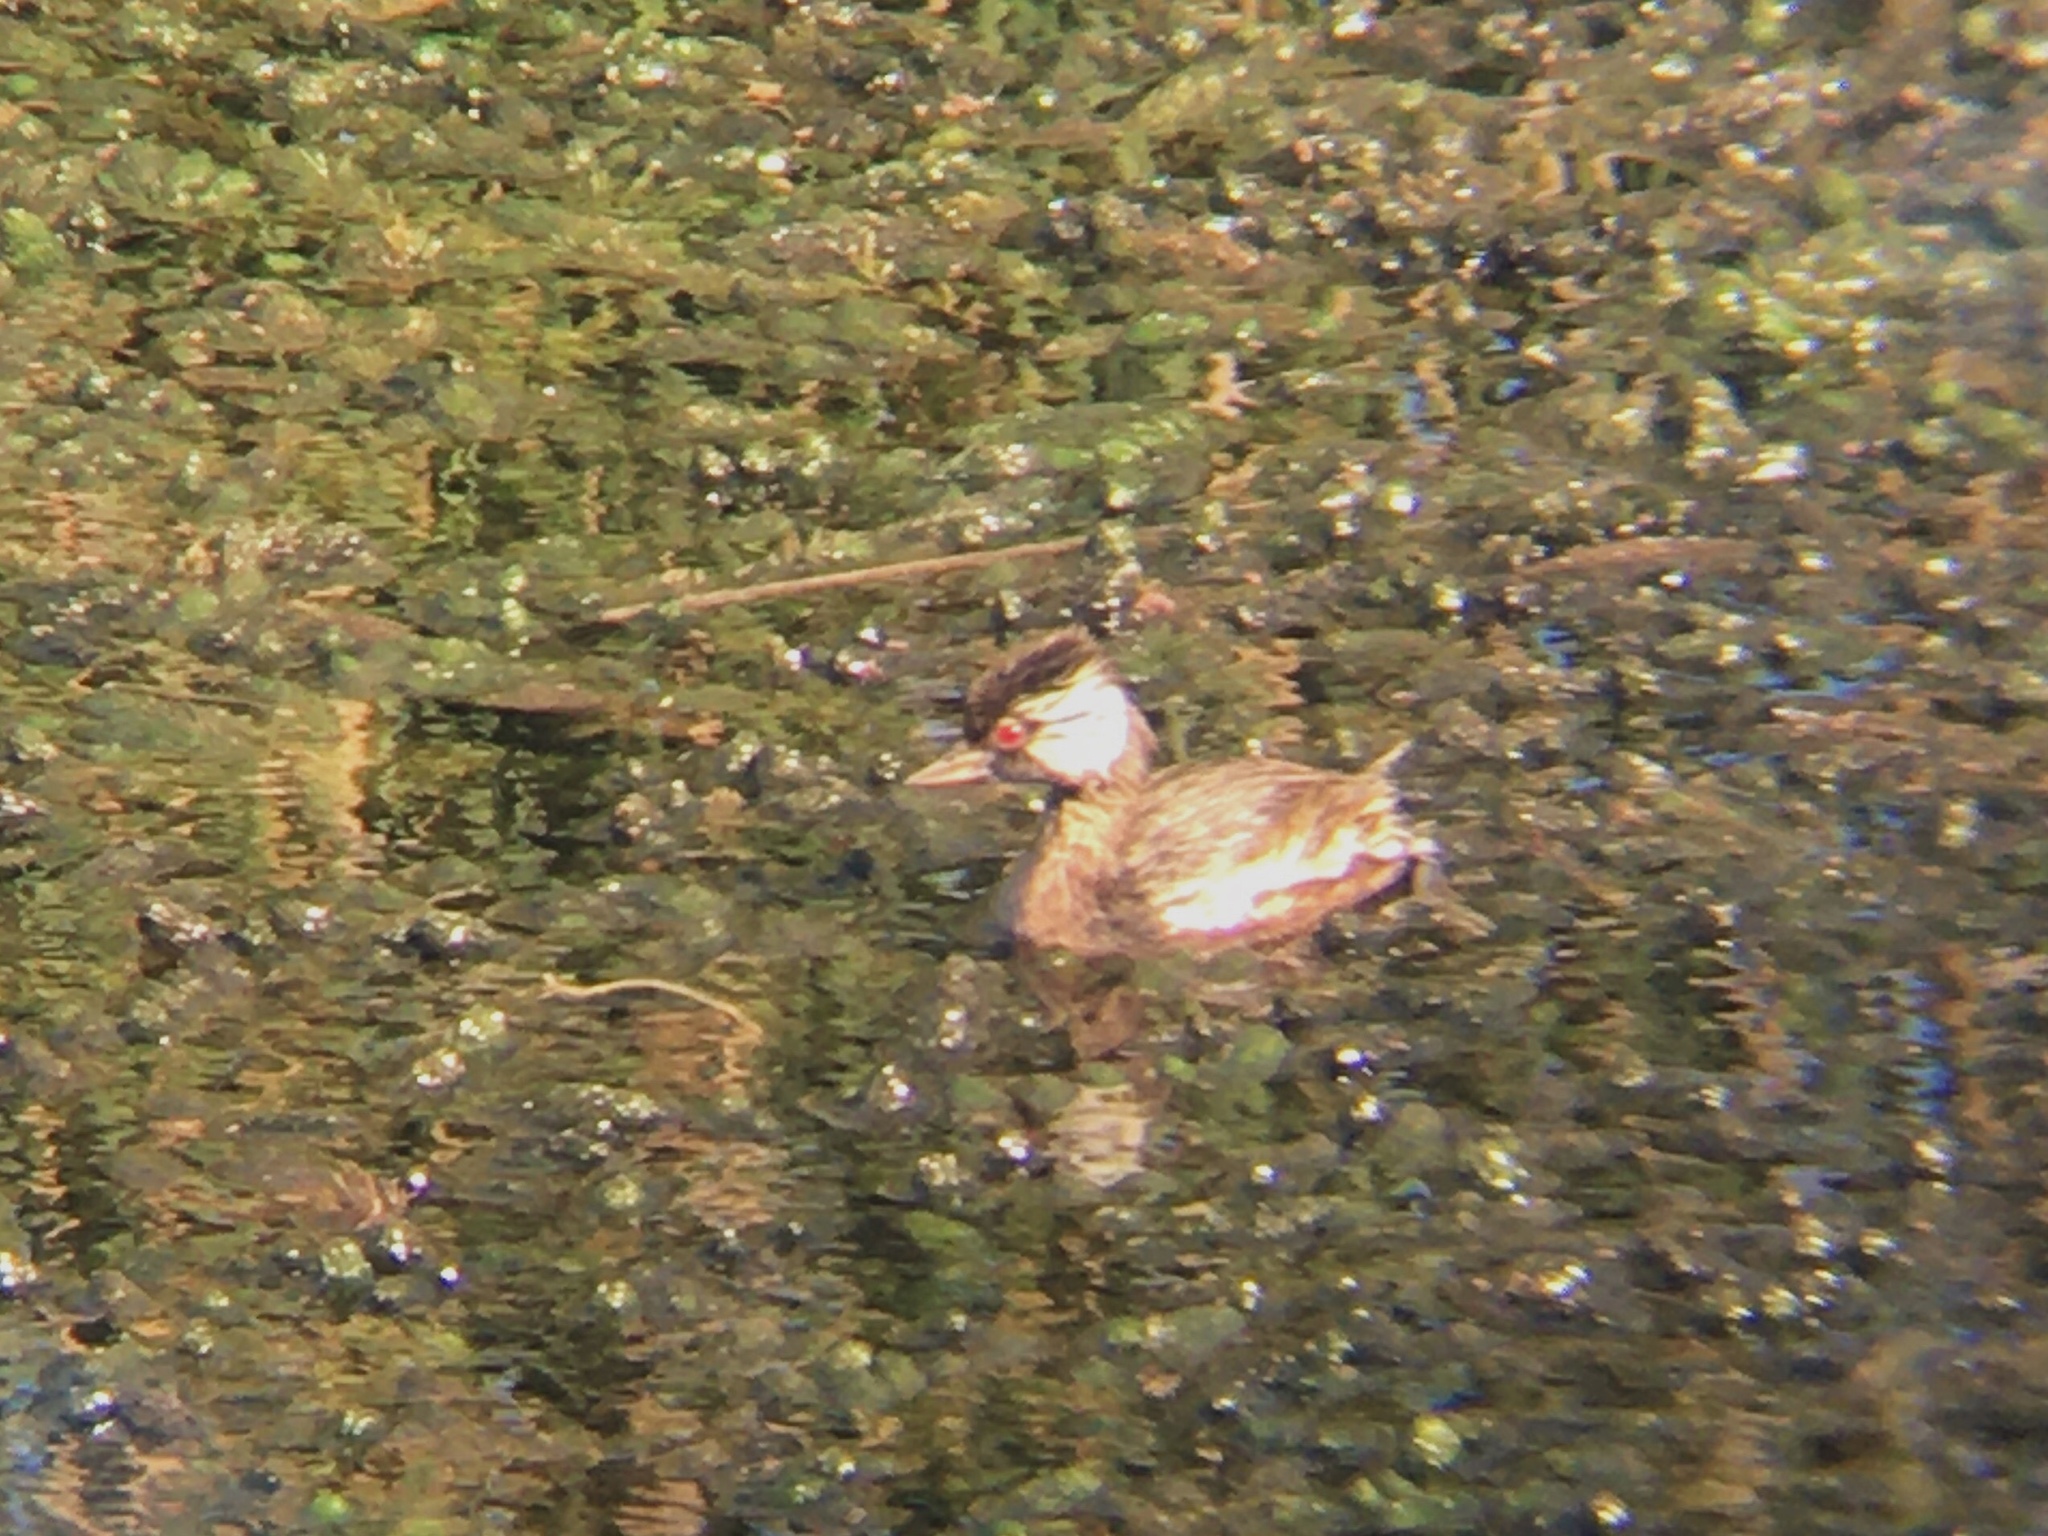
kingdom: Animalia
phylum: Chordata
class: Aves
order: Podicipediformes
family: Podicipedidae
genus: Rollandia
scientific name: Rollandia rolland
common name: White-tufted grebe
